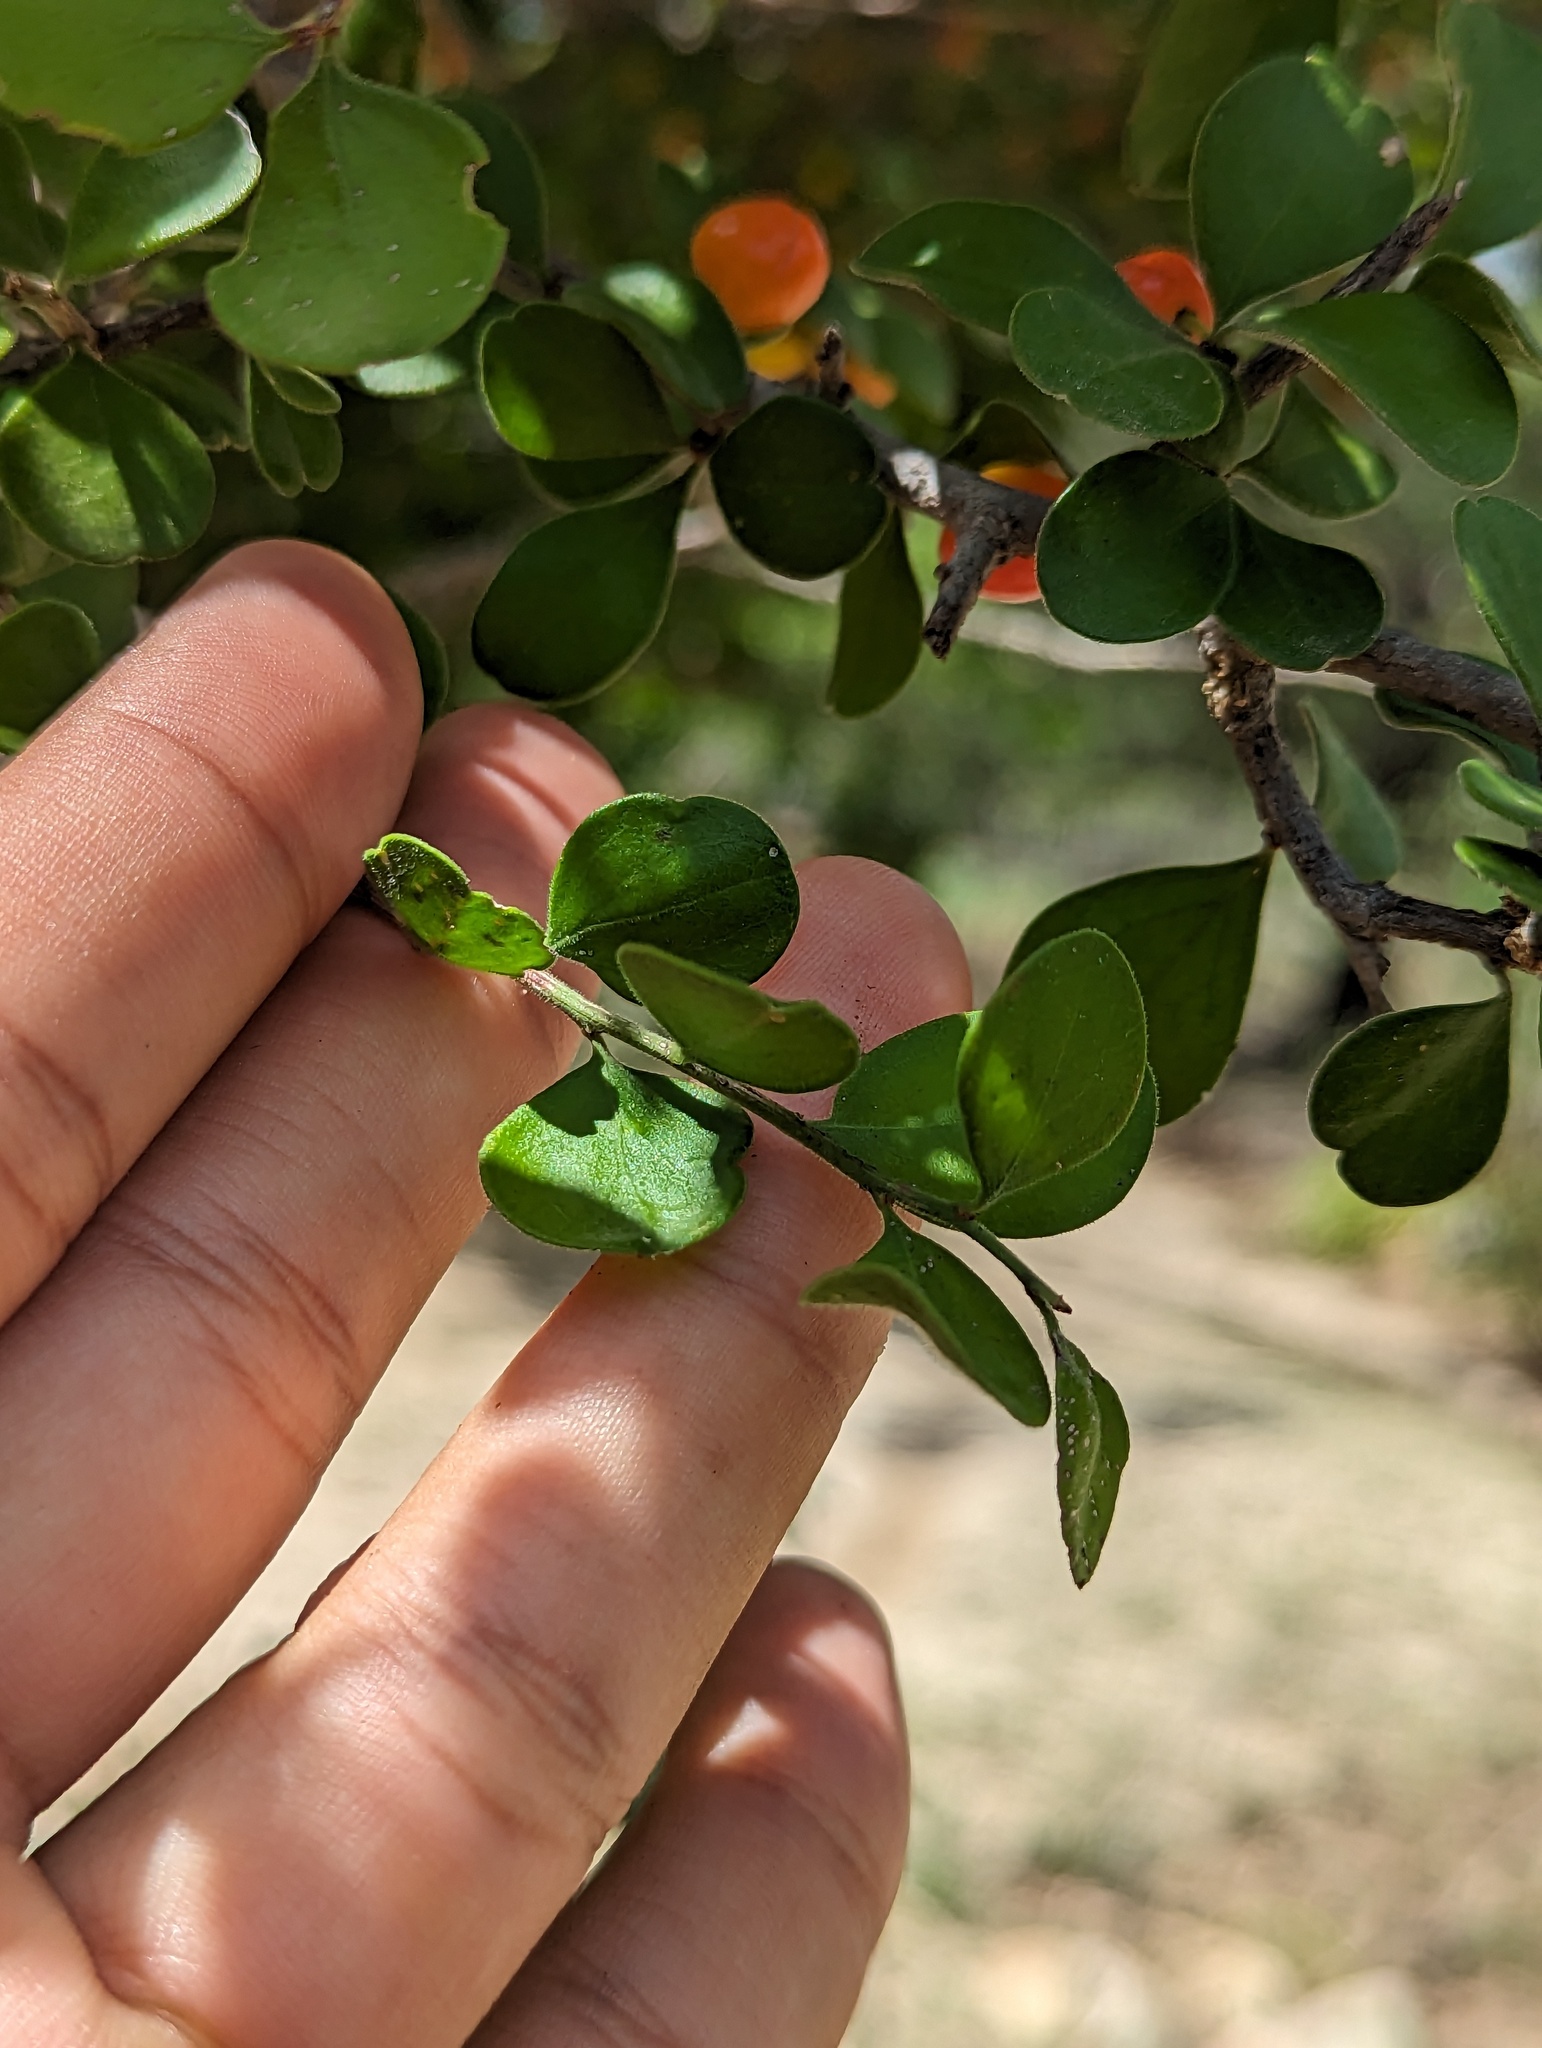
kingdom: Plantae
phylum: Tracheophyta
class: Magnoliopsida
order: Celastrales
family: Celastraceae
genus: Schaefferia
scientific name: Schaefferia pilosa
